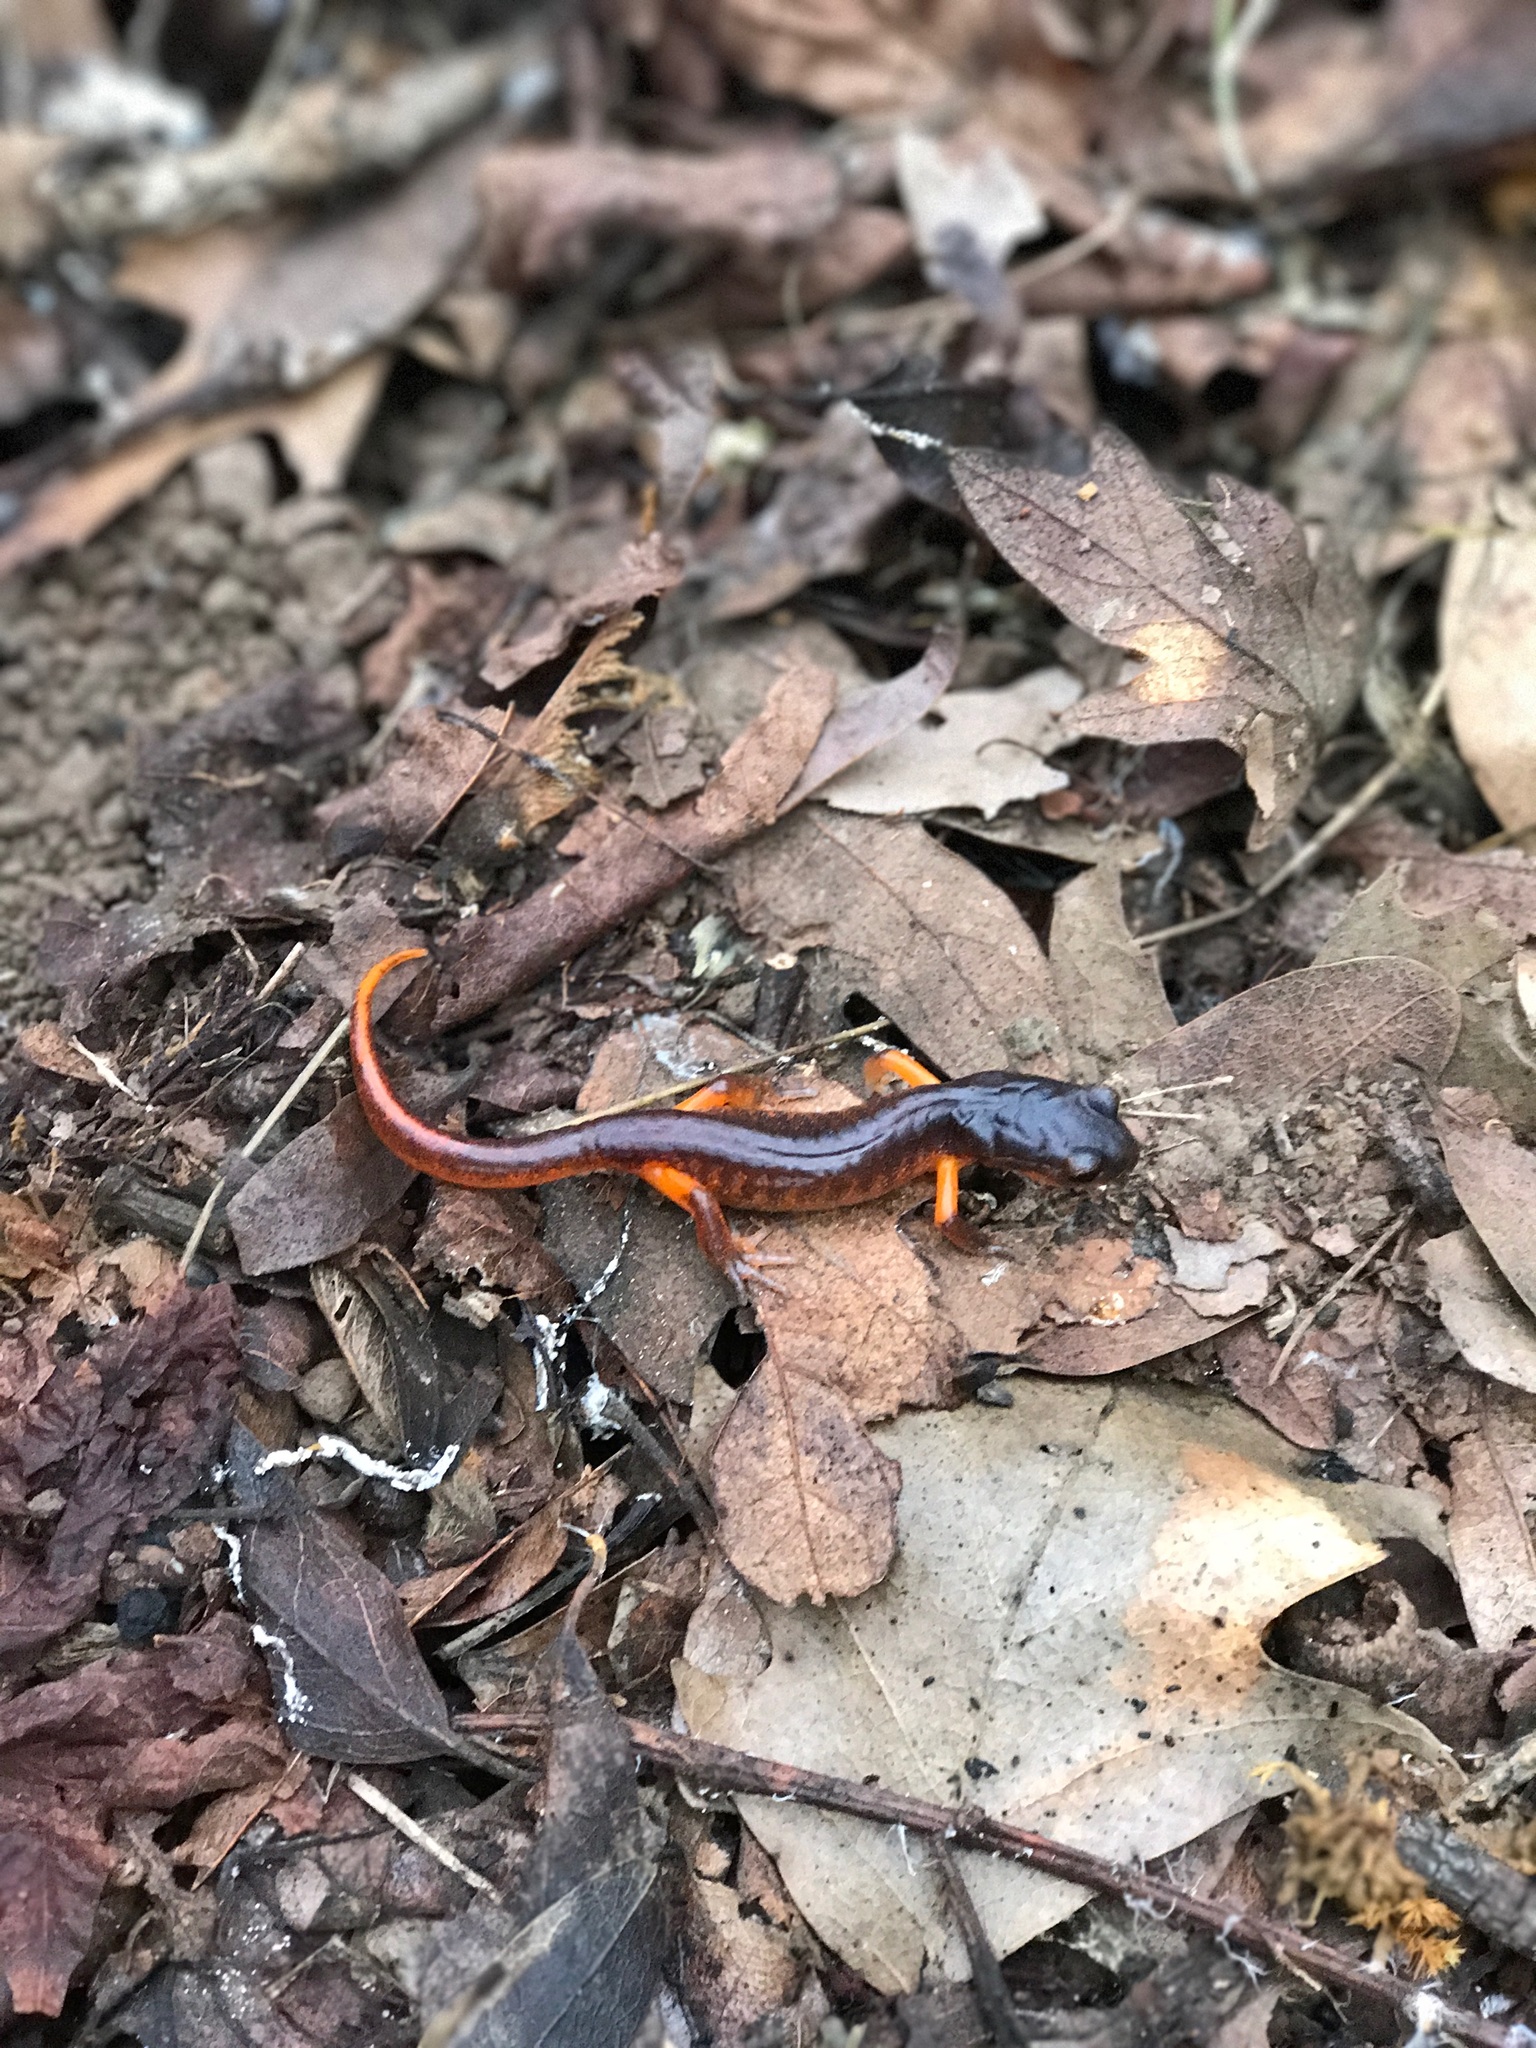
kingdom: Animalia
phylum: Chordata
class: Amphibia
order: Caudata
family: Plethodontidae
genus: Ensatina
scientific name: Ensatina eschscholtzii
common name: Ensatina
